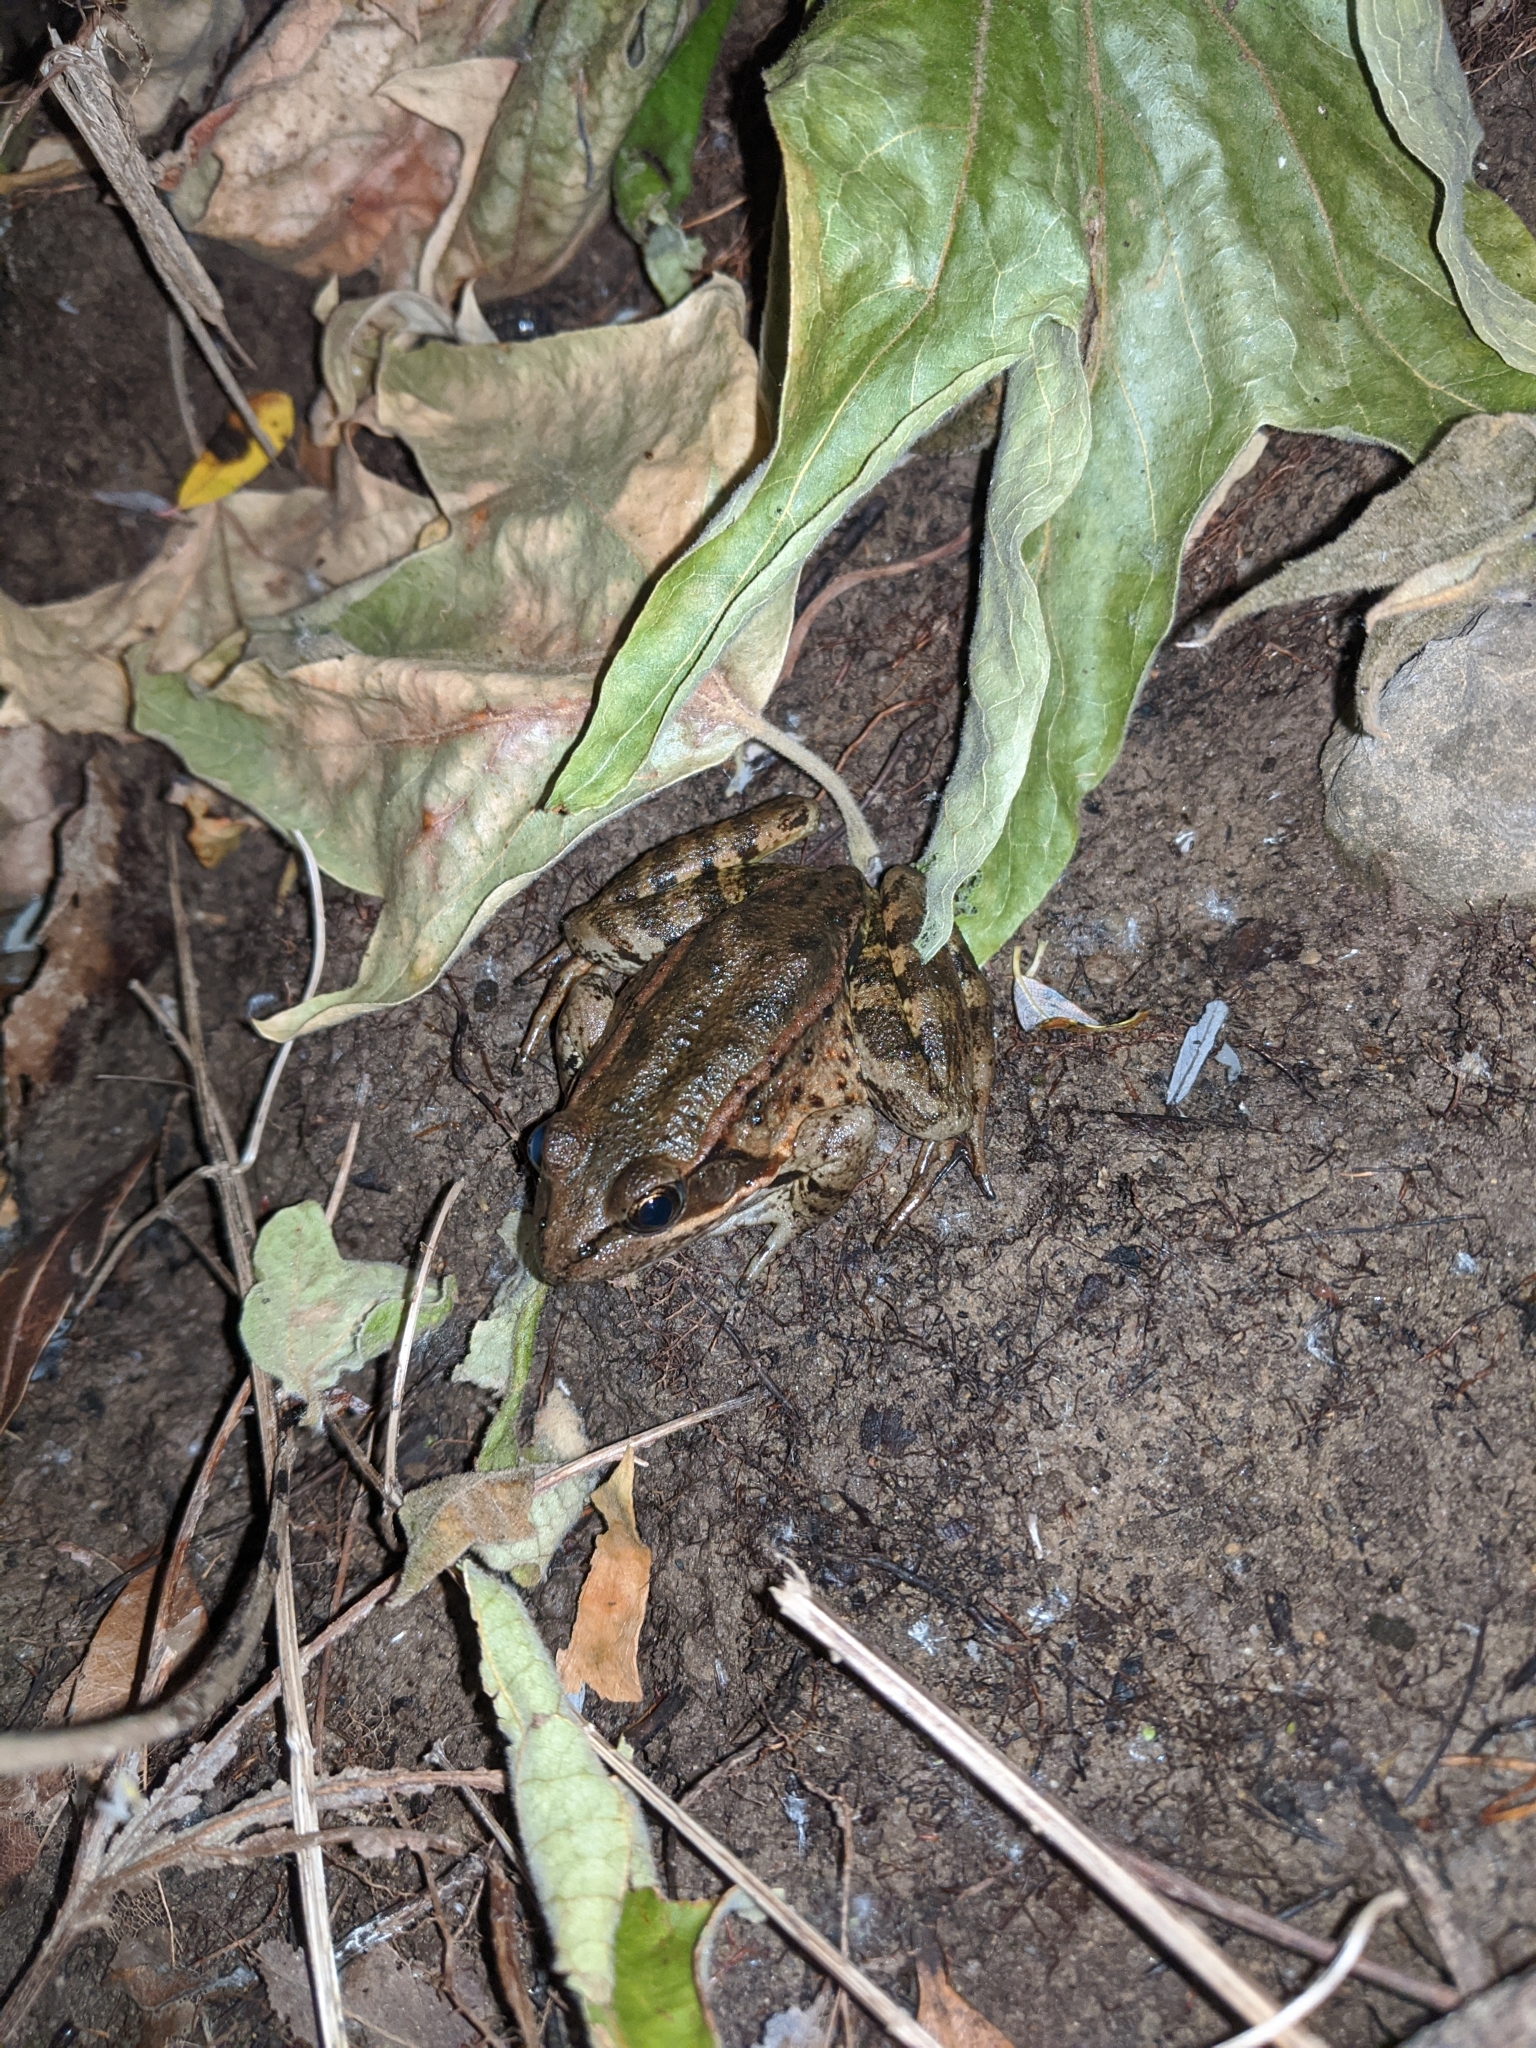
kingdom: Animalia
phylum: Chordata
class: Amphibia
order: Anura
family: Ranidae
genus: Rana
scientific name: Rana draytonii
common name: California red-legged frog
